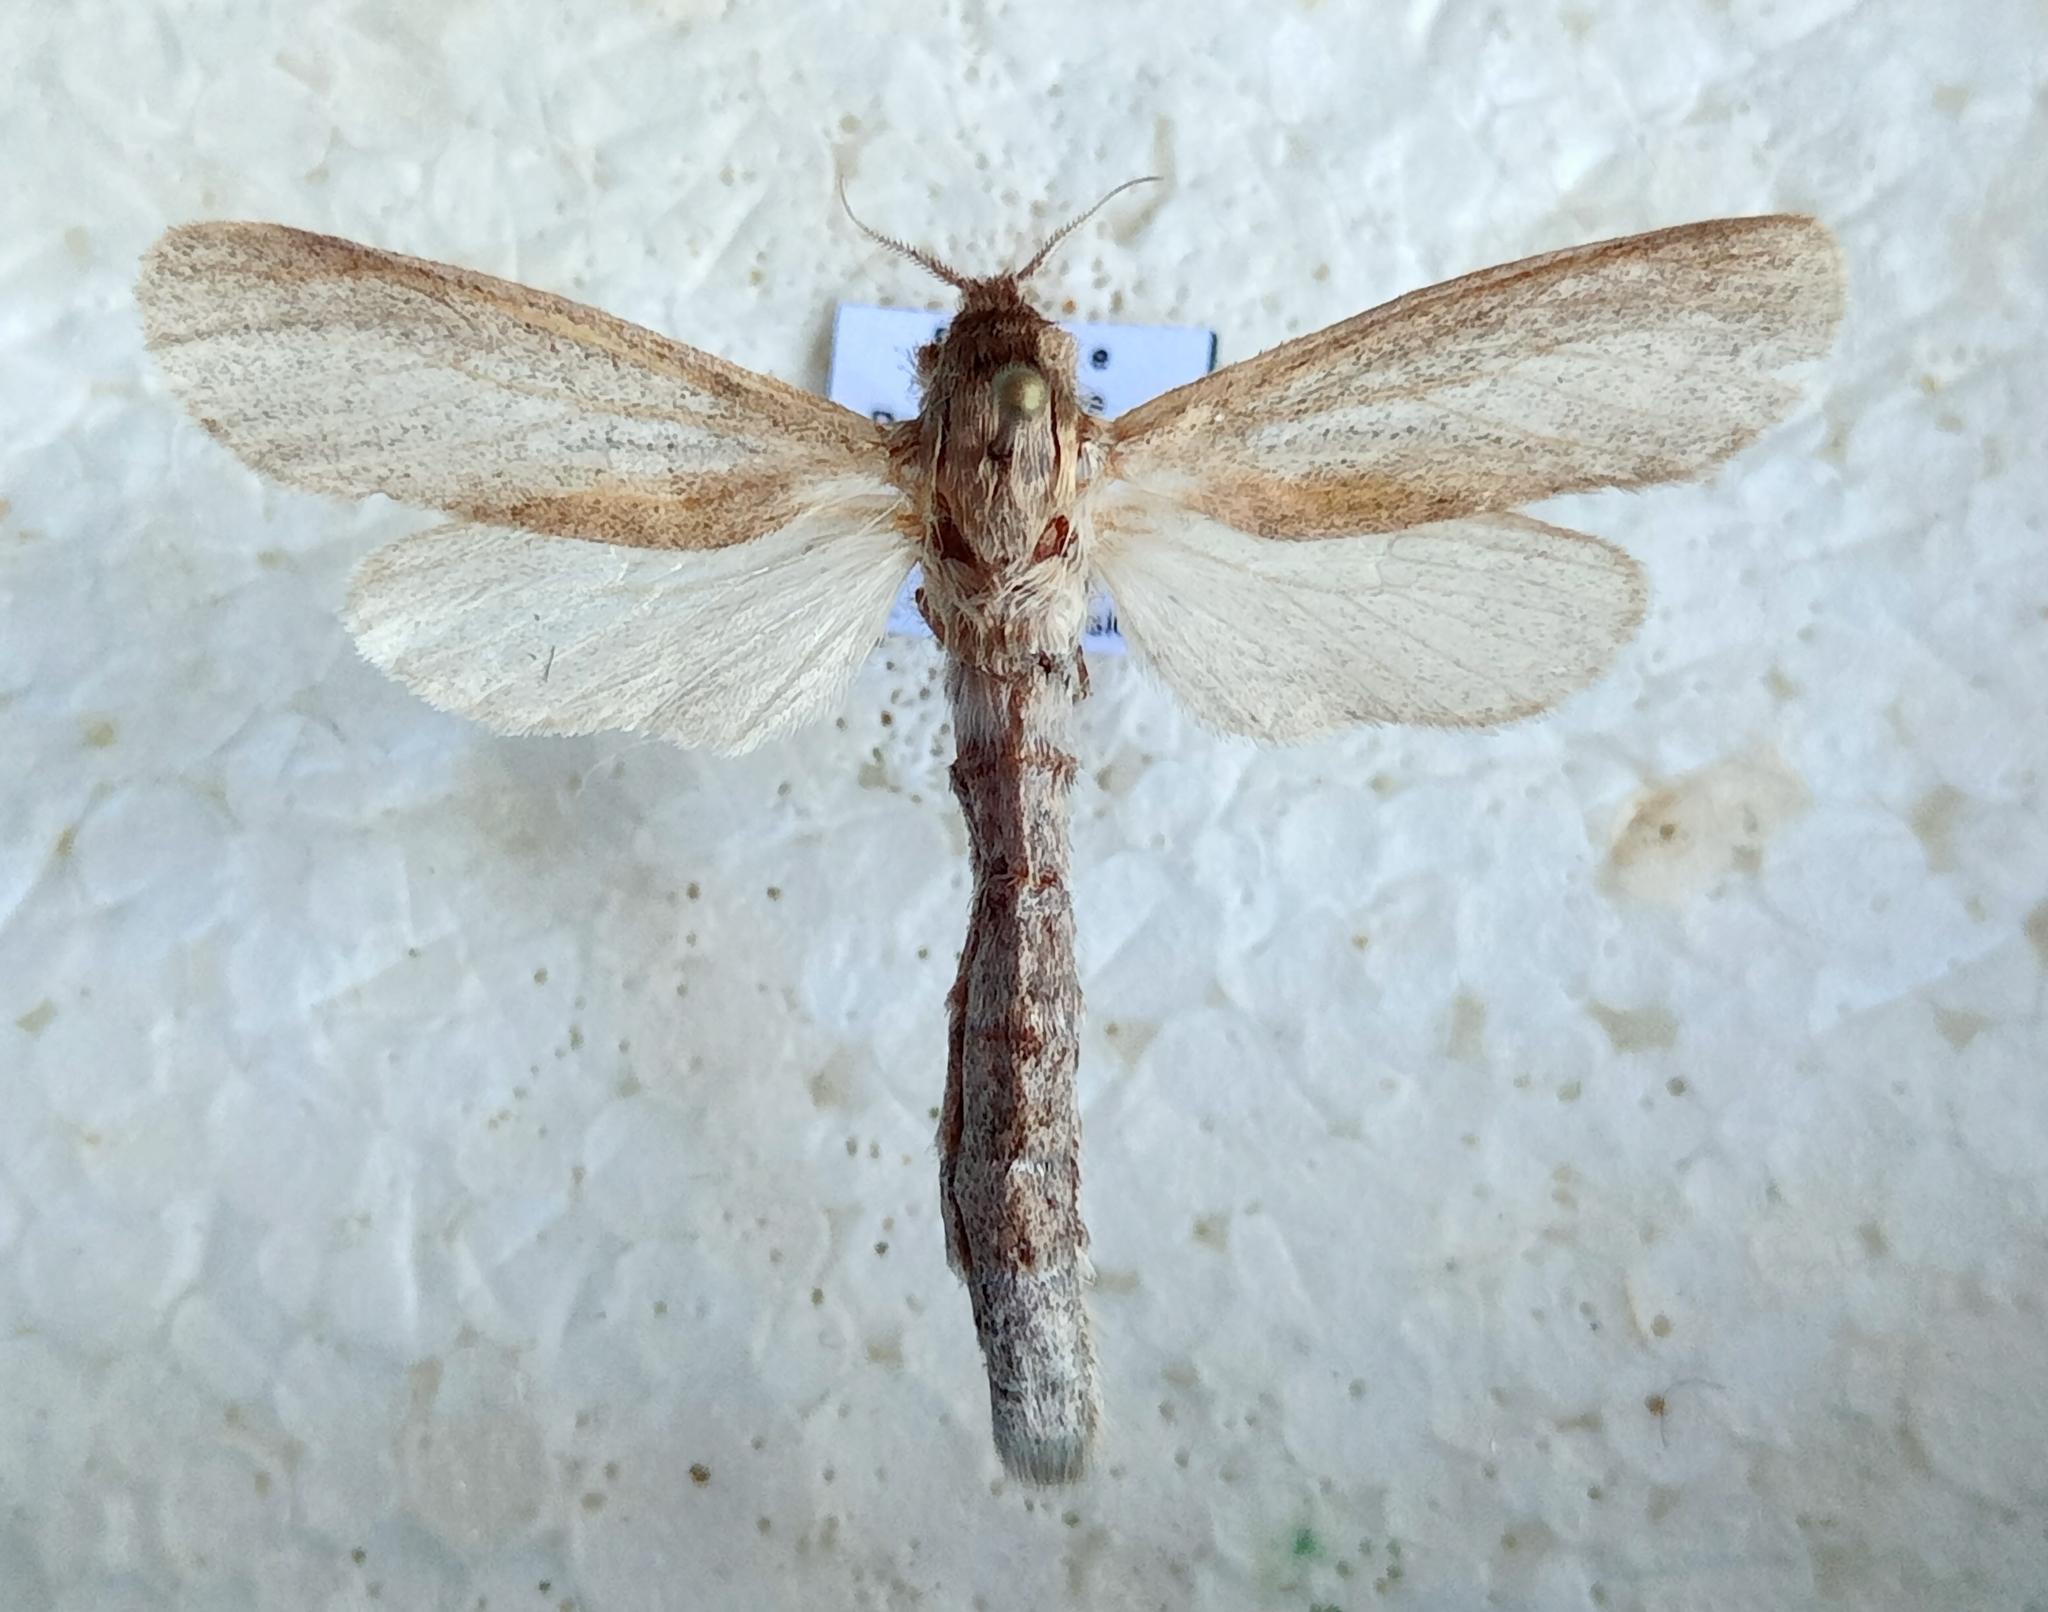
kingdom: Animalia
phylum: Arthropoda
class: Insecta
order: Lepidoptera
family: Cossidae
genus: Phragmataecia
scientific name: Phragmataecia castaneae
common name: Reed leopard
